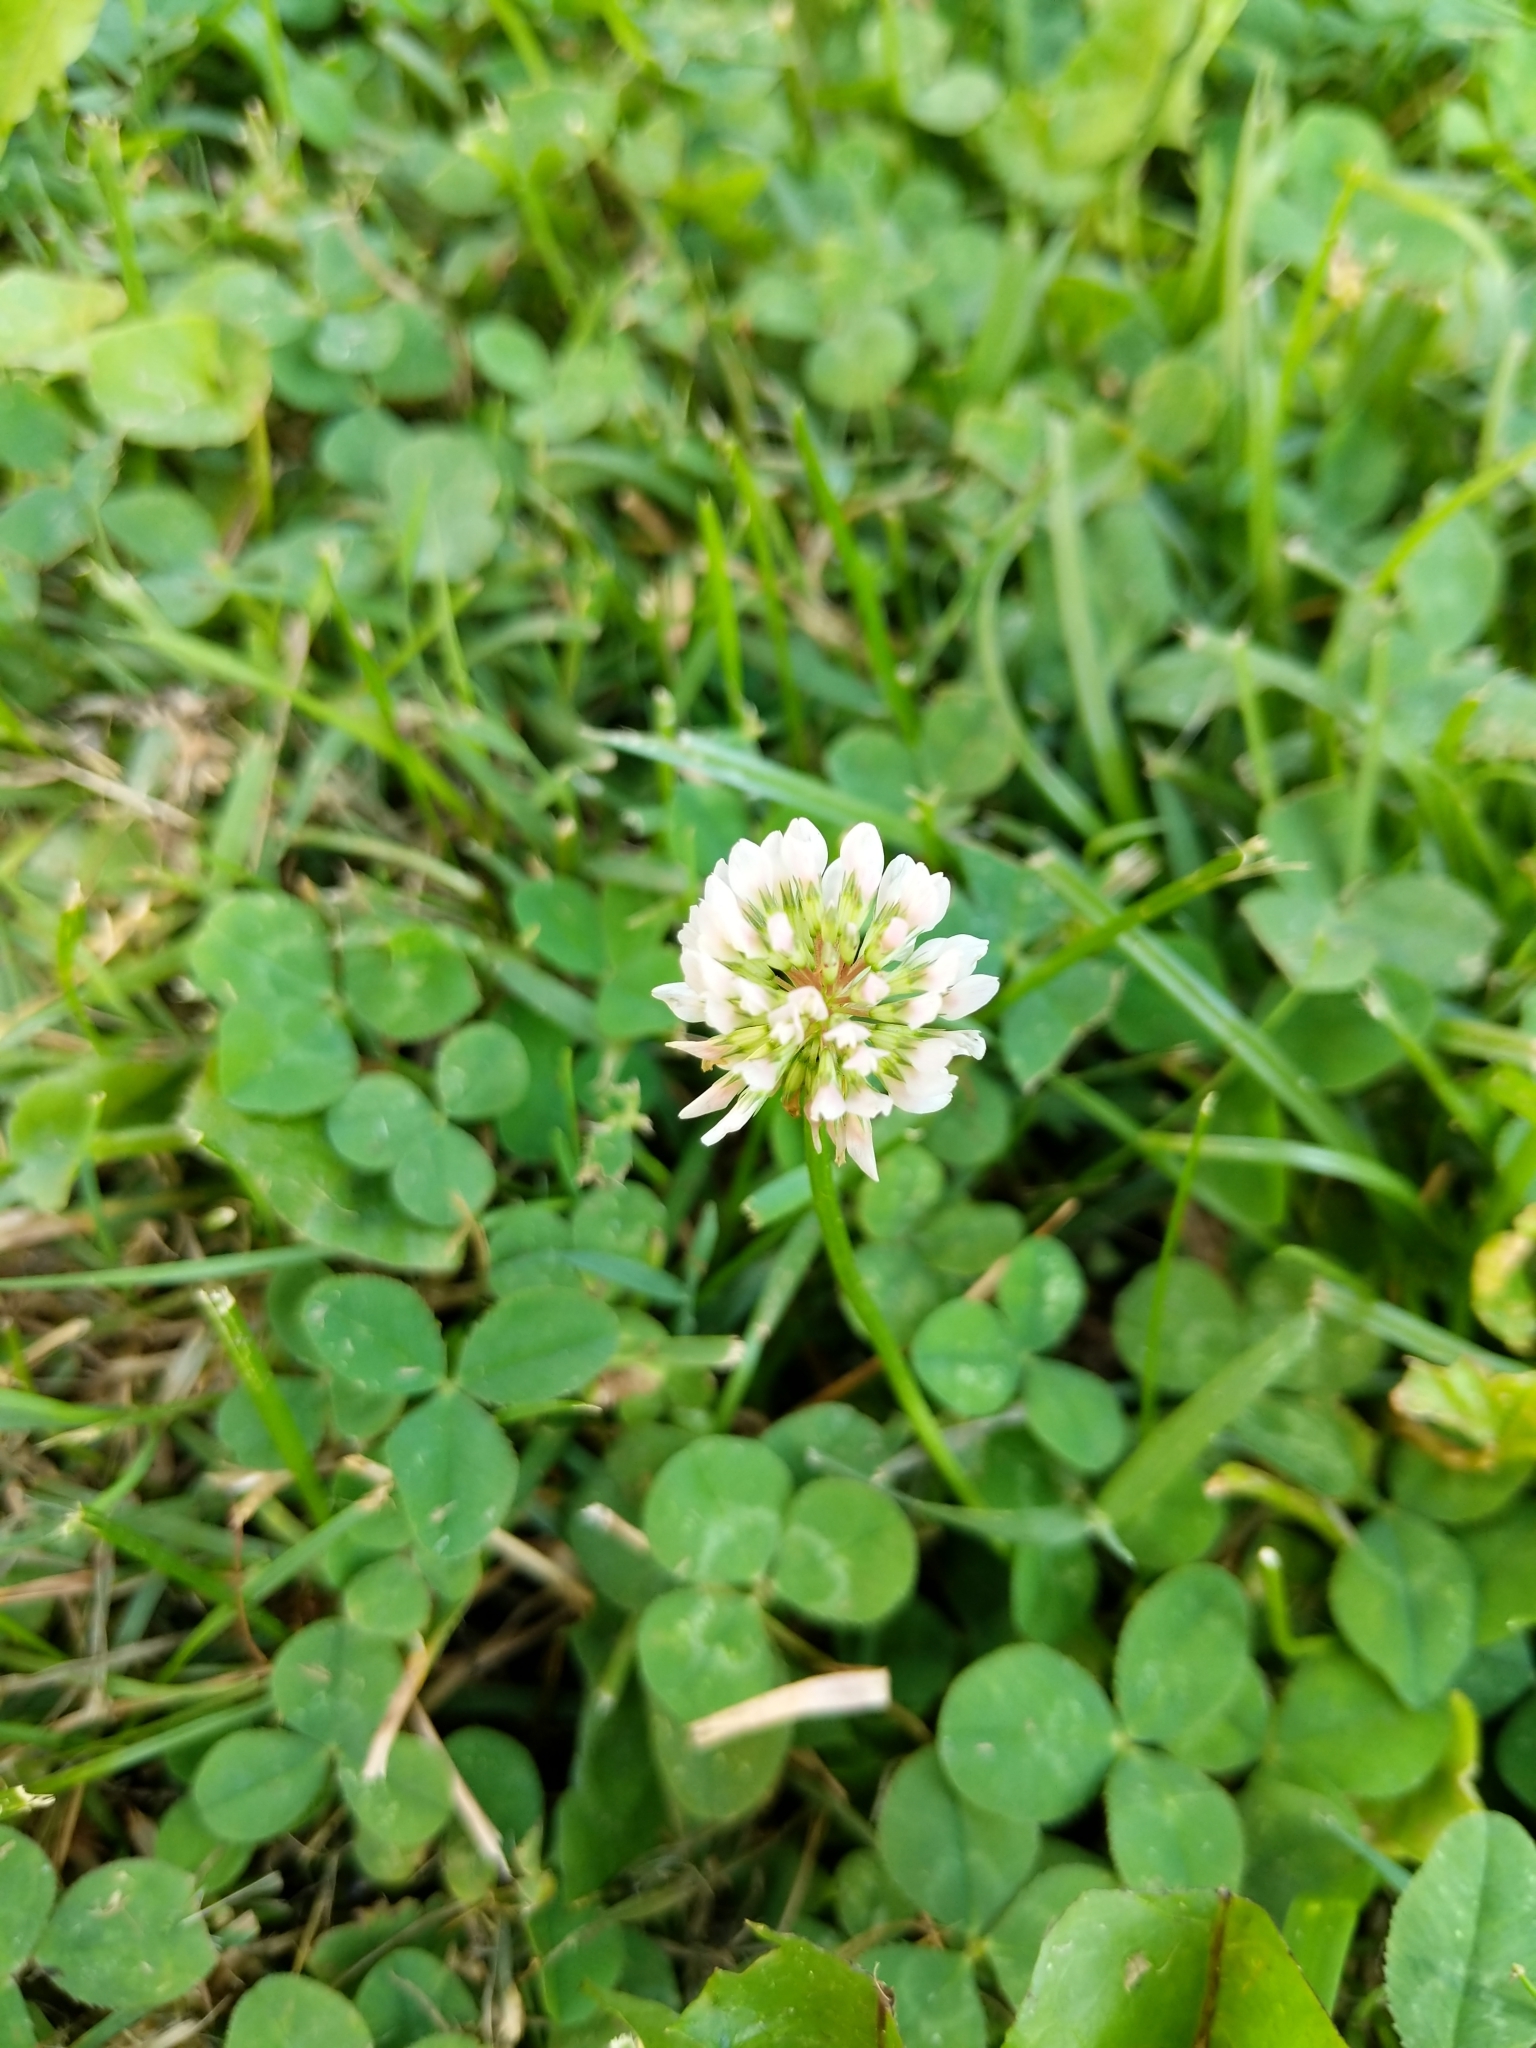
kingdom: Plantae
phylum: Tracheophyta
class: Magnoliopsida
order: Fabales
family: Fabaceae
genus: Trifolium
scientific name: Trifolium repens
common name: White clover
